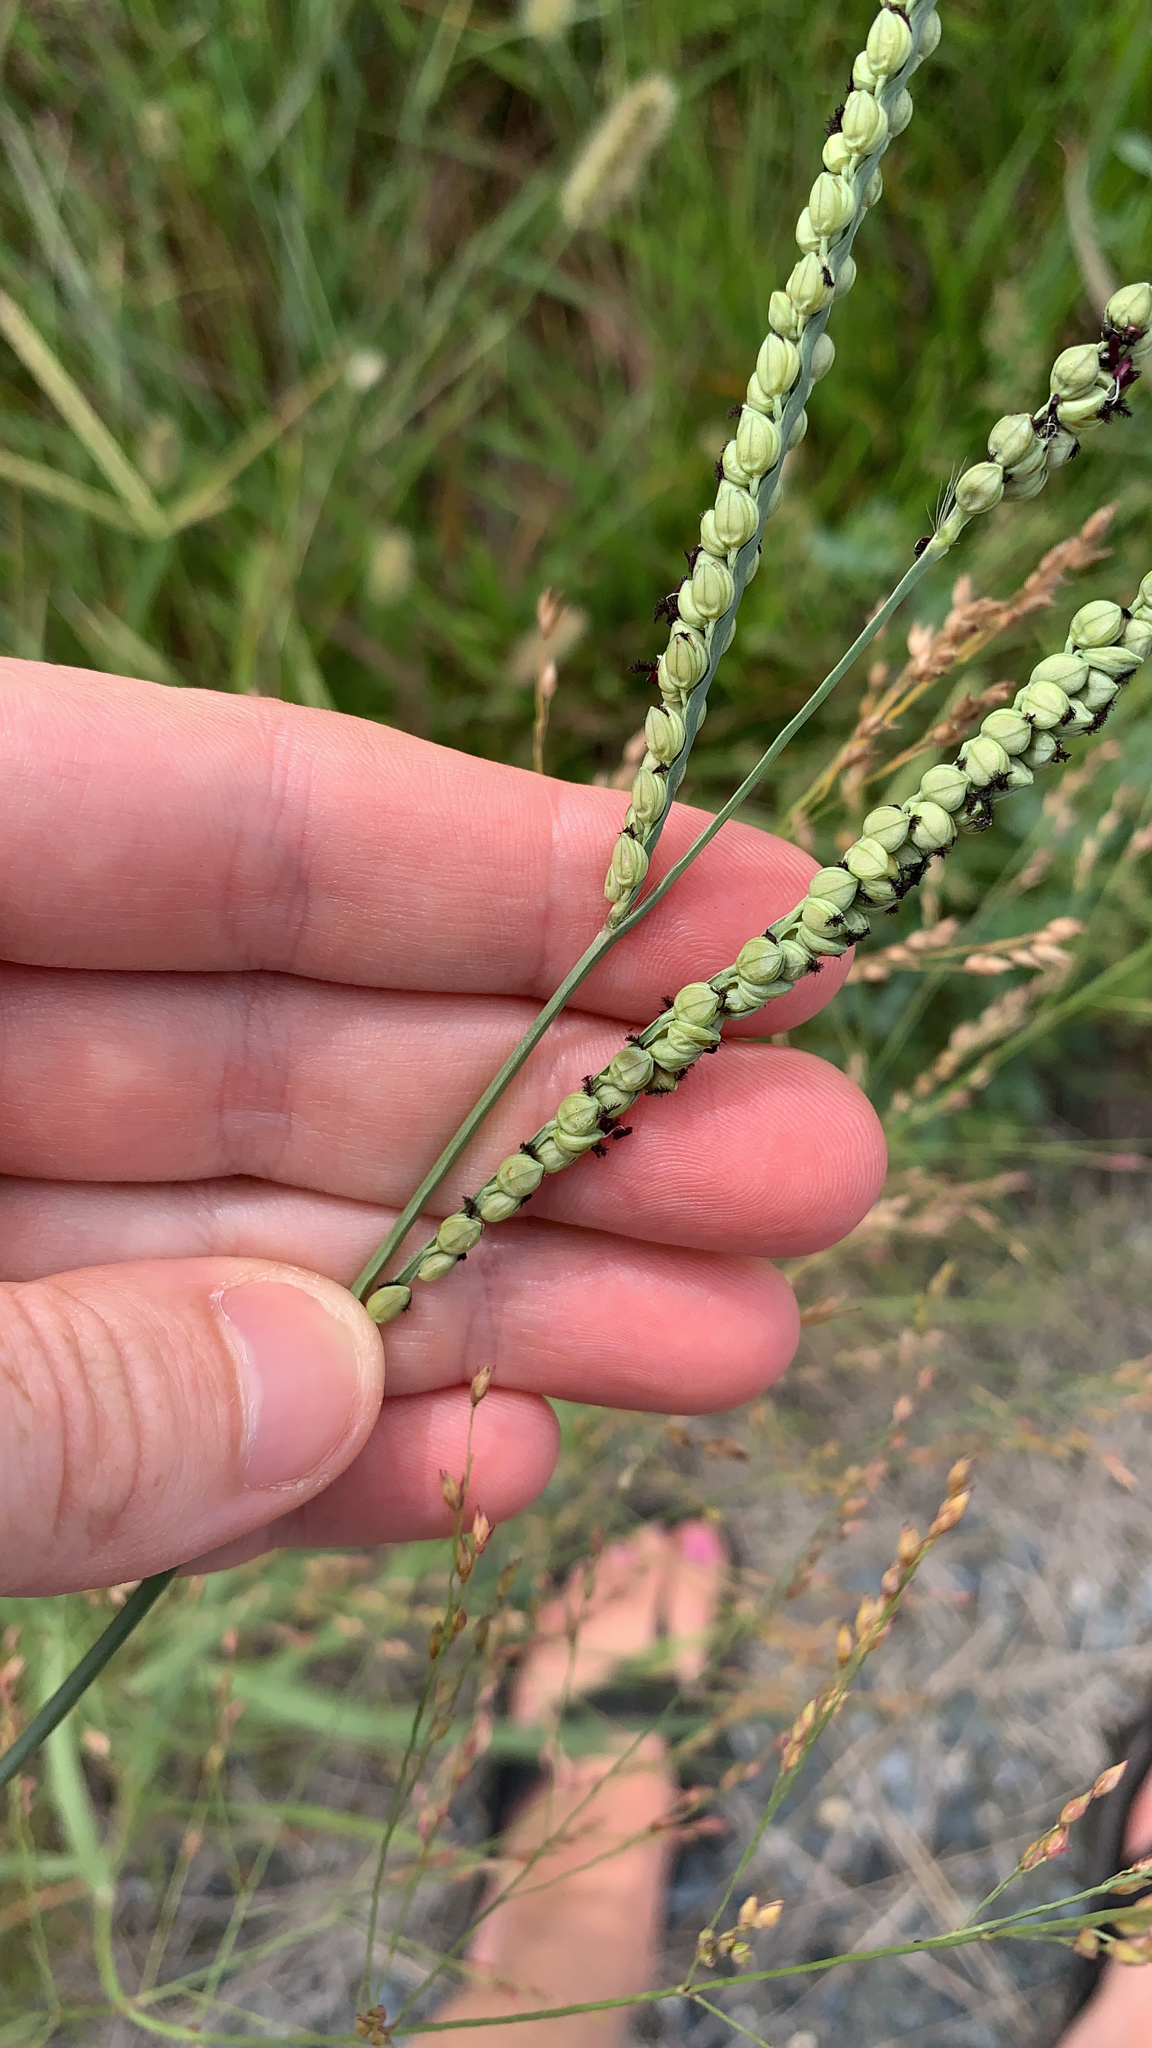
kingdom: Plantae
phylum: Tracheophyta
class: Liliopsida
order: Poales
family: Poaceae
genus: Paspalum
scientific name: Paspalum floridanum
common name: Florida paspalum
